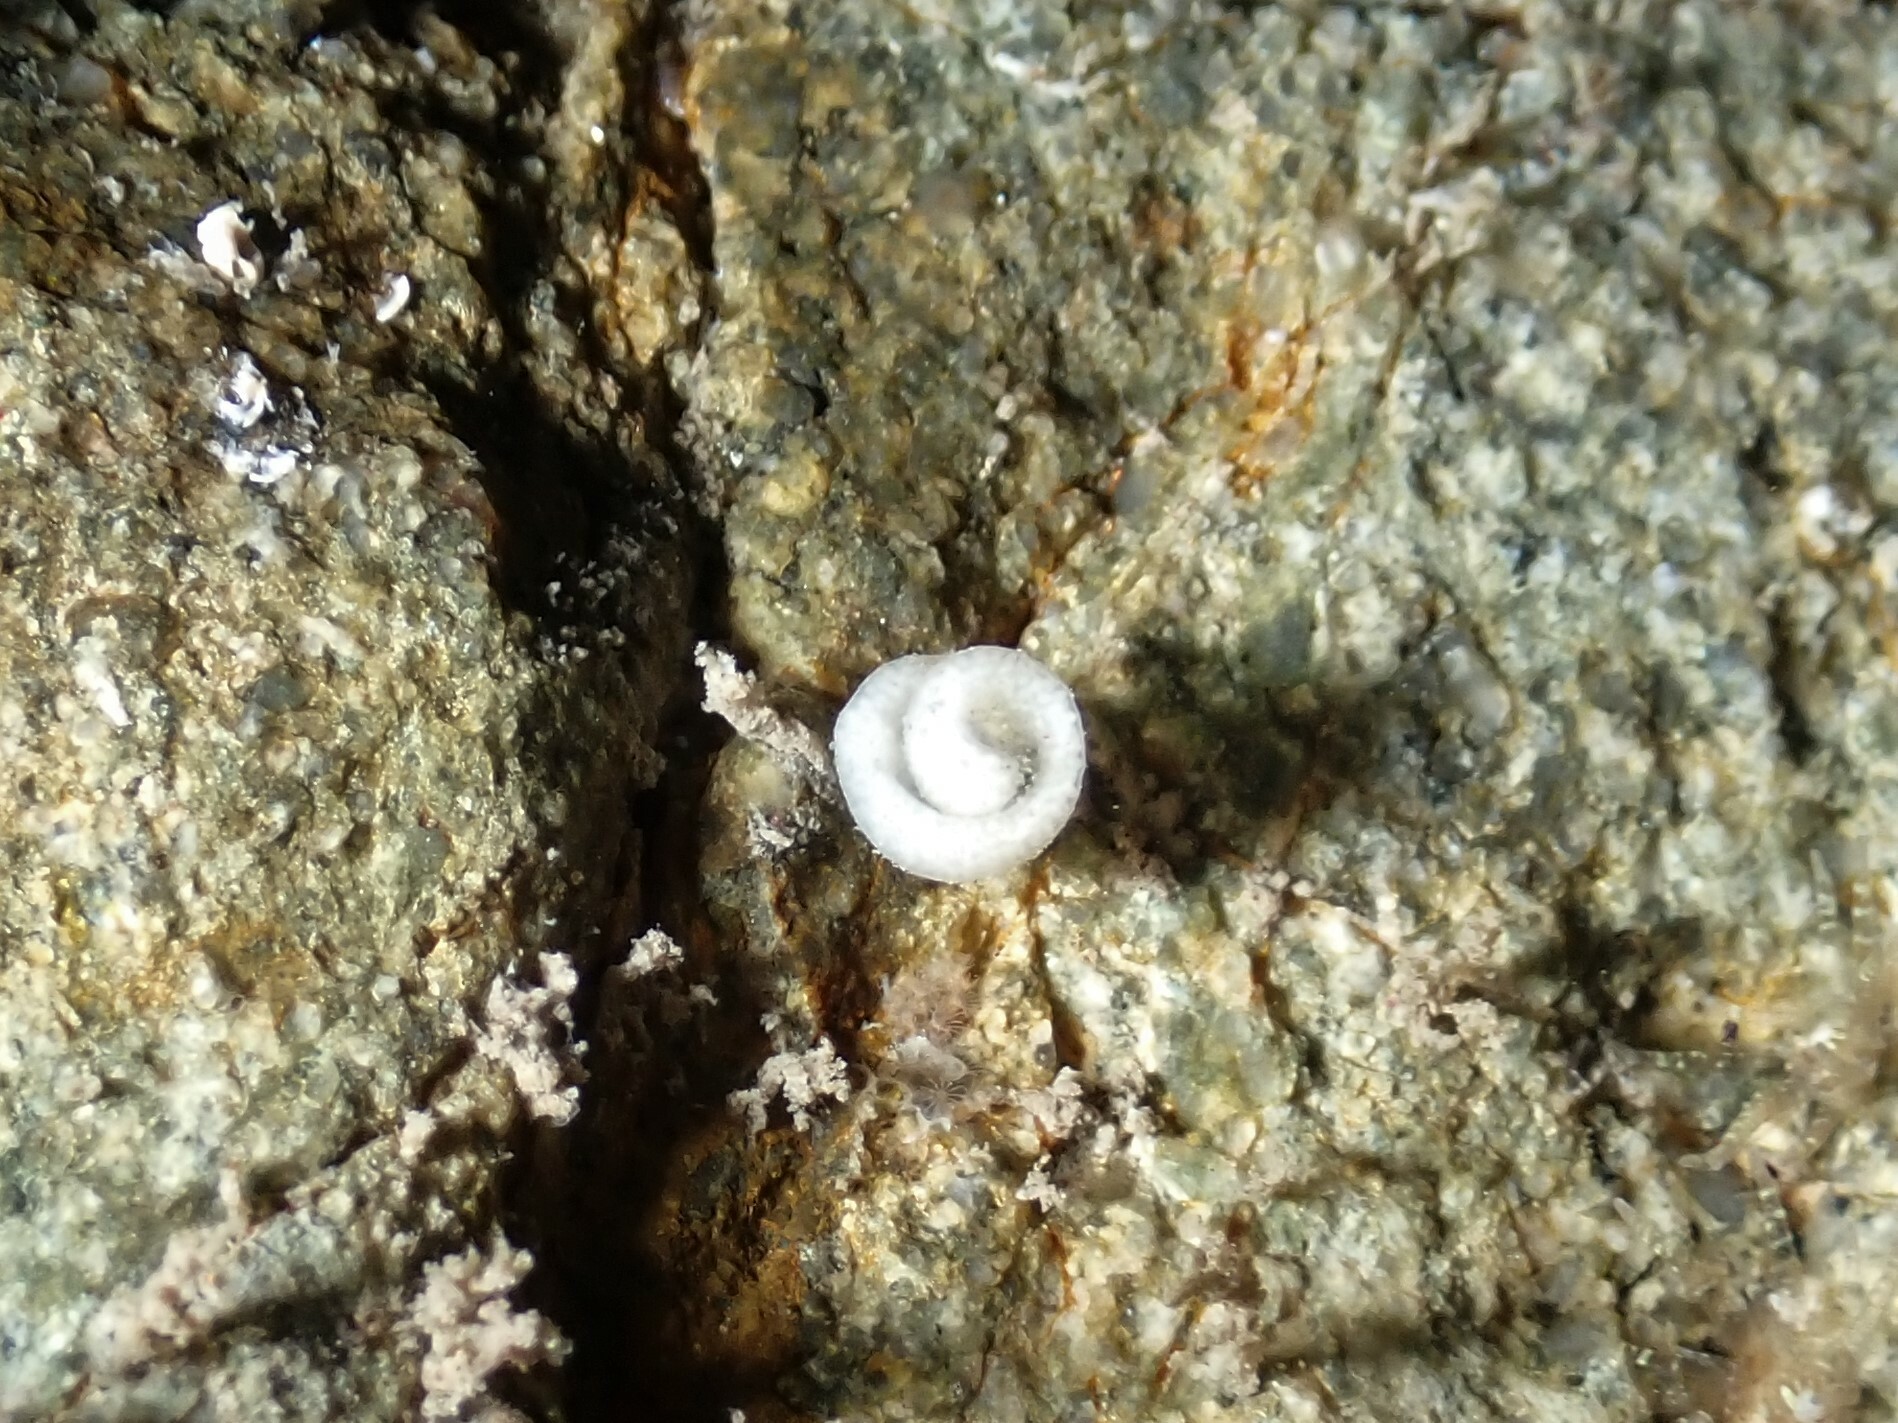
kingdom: Animalia
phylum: Mollusca
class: Gastropoda
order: Nudibranchia
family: Tethydidae
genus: Melibe
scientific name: Melibe
